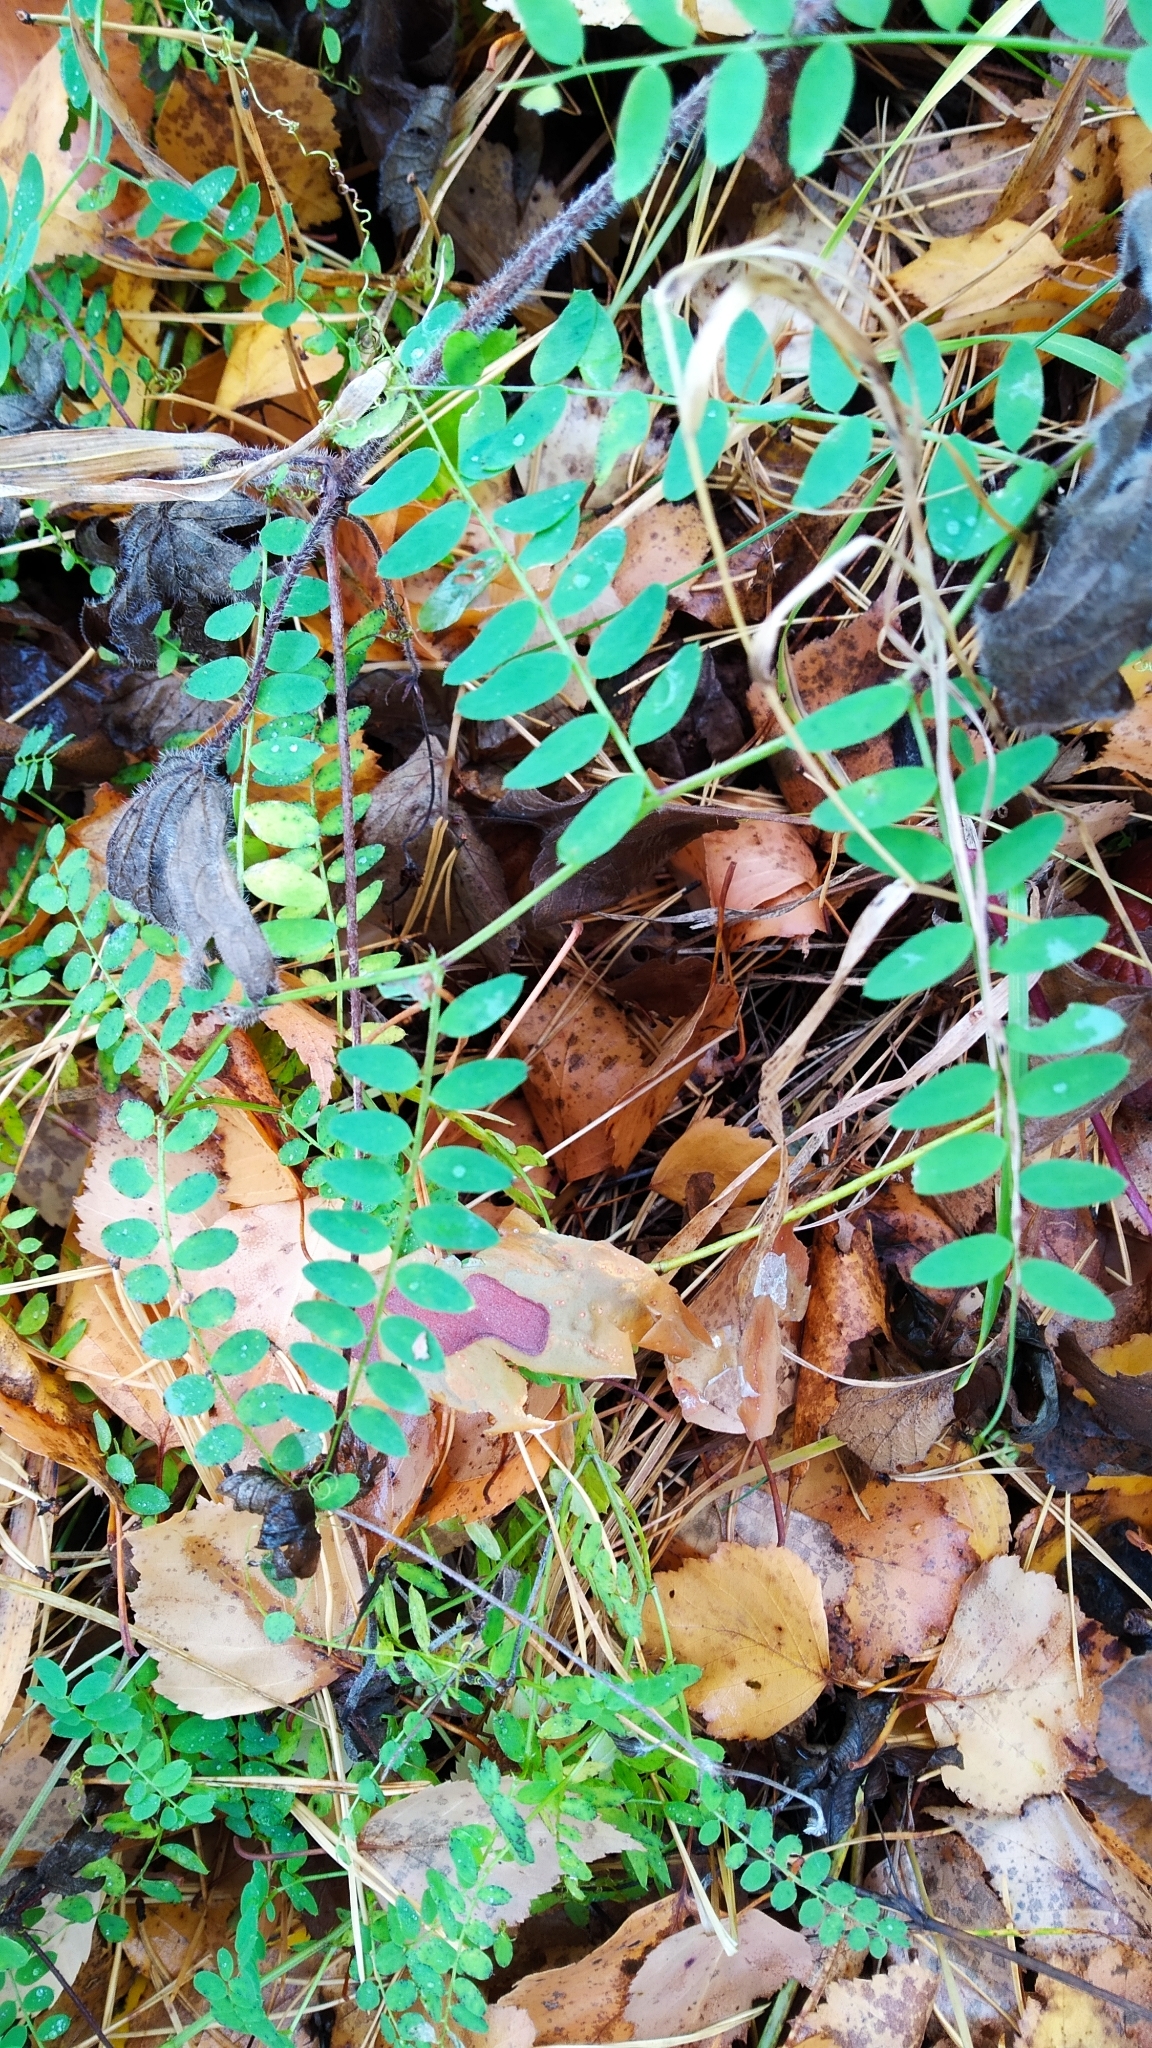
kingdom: Plantae
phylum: Tracheophyta
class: Magnoliopsida
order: Fabales
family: Fabaceae
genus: Vicia
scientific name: Vicia sylvatica
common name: Wood vetch
